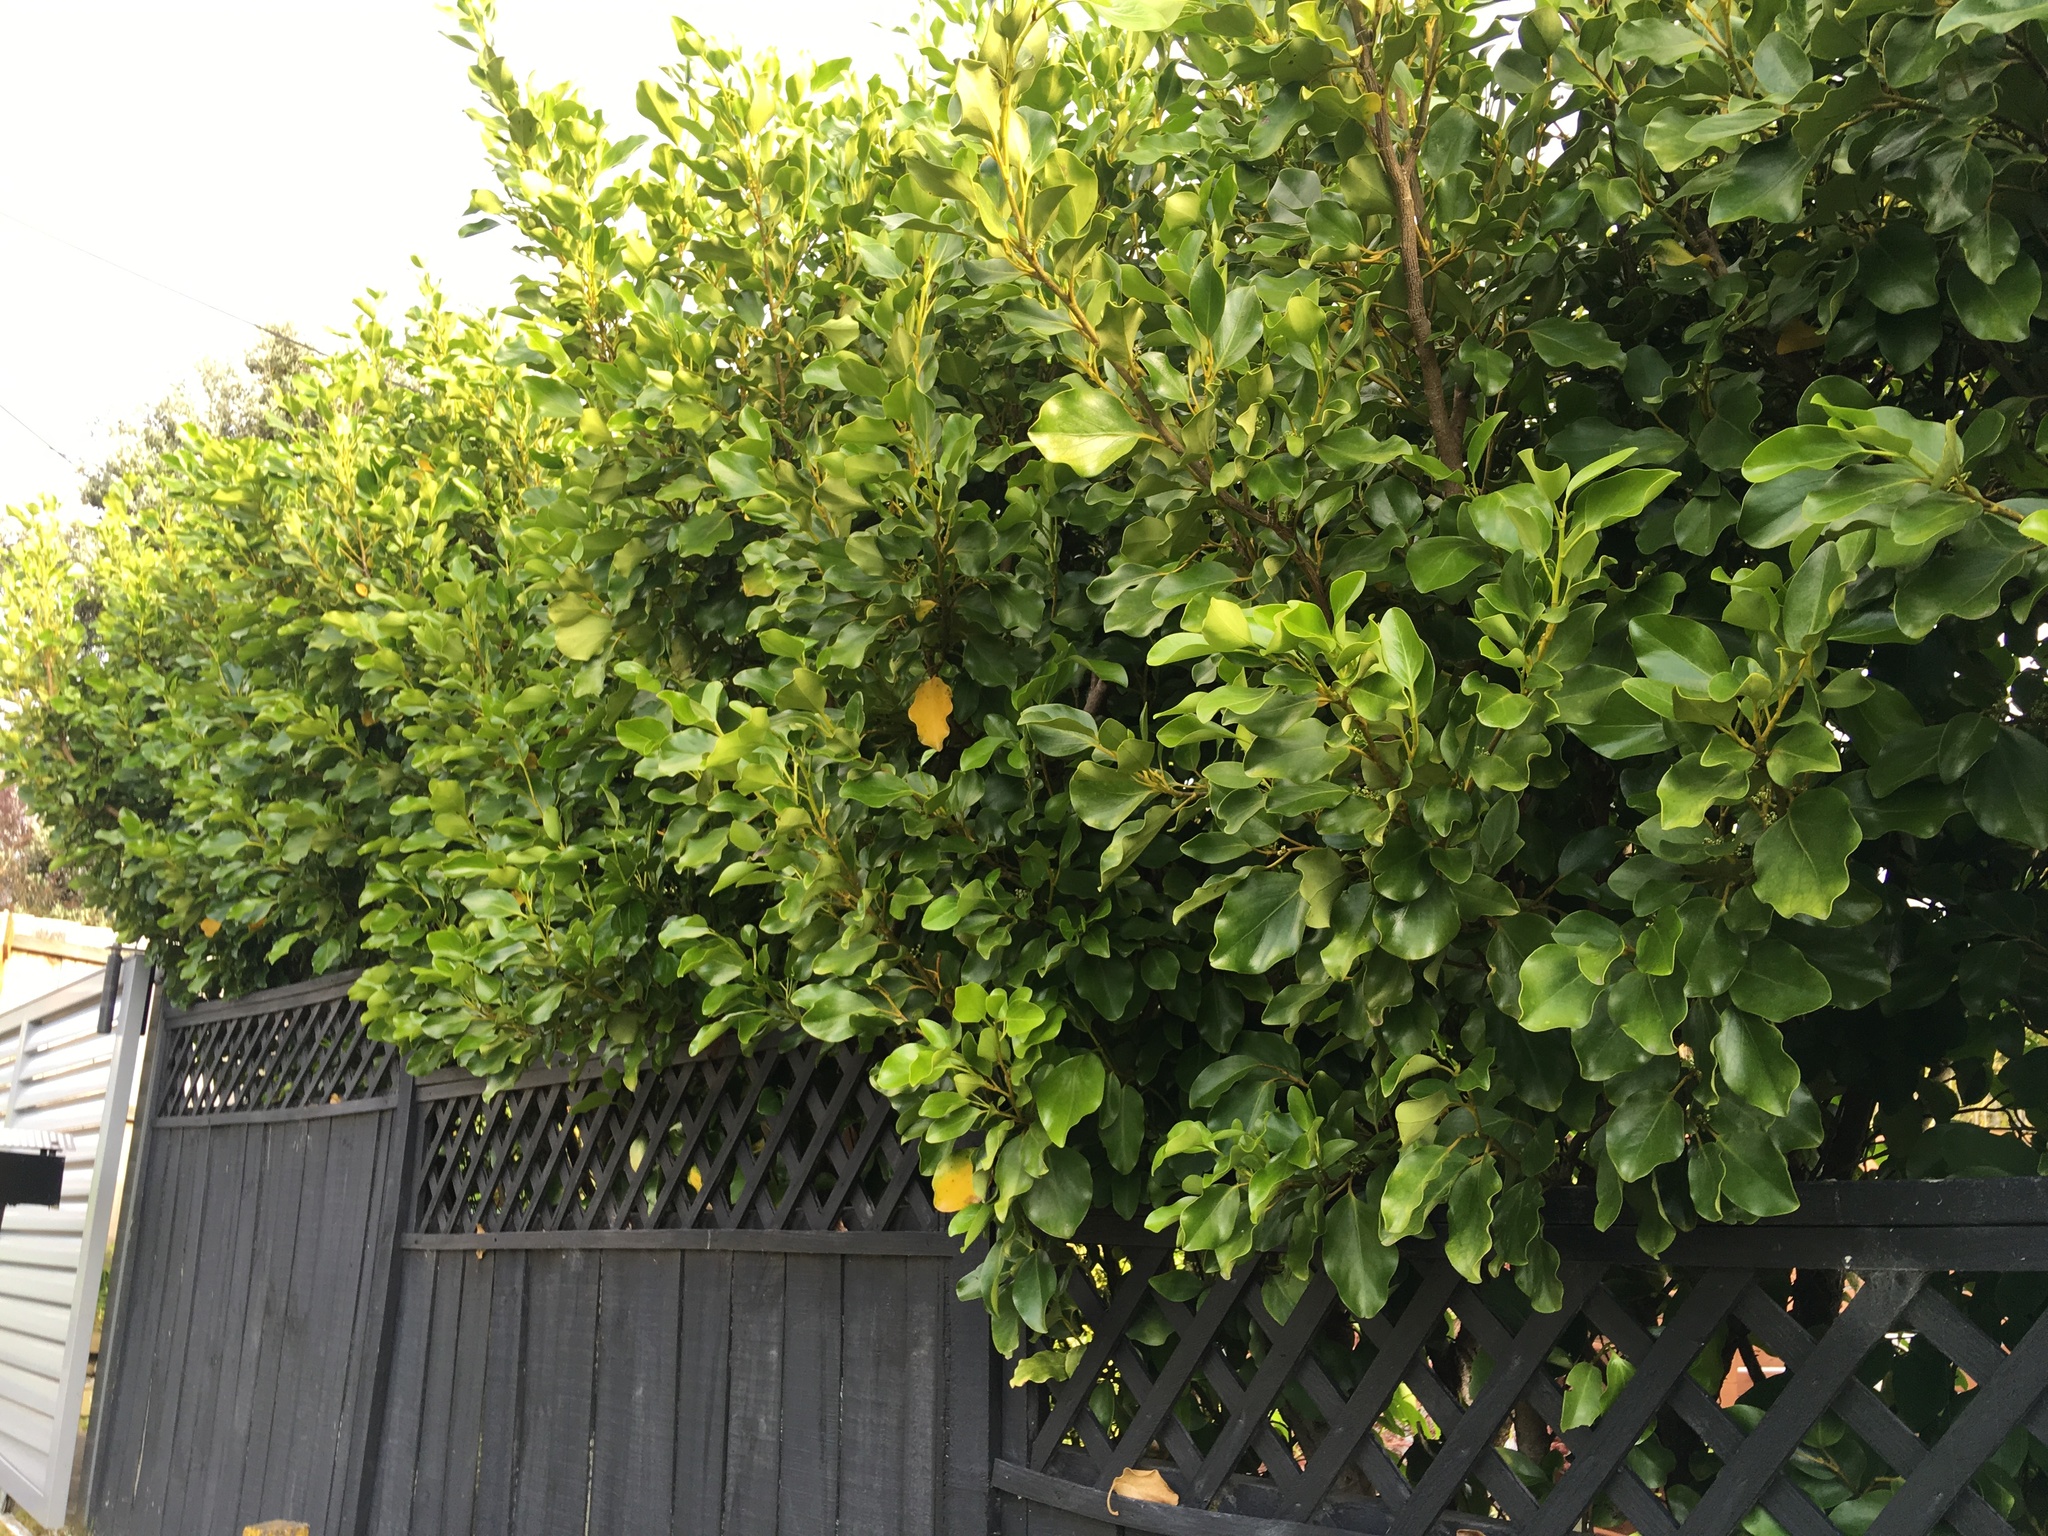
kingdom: Plantae
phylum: Tracheophyta
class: Magnoliopsida
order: Apiales
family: Griseliniaceae
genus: Griselinia
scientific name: Griselinia littoralis
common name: New zealand broadleaf
